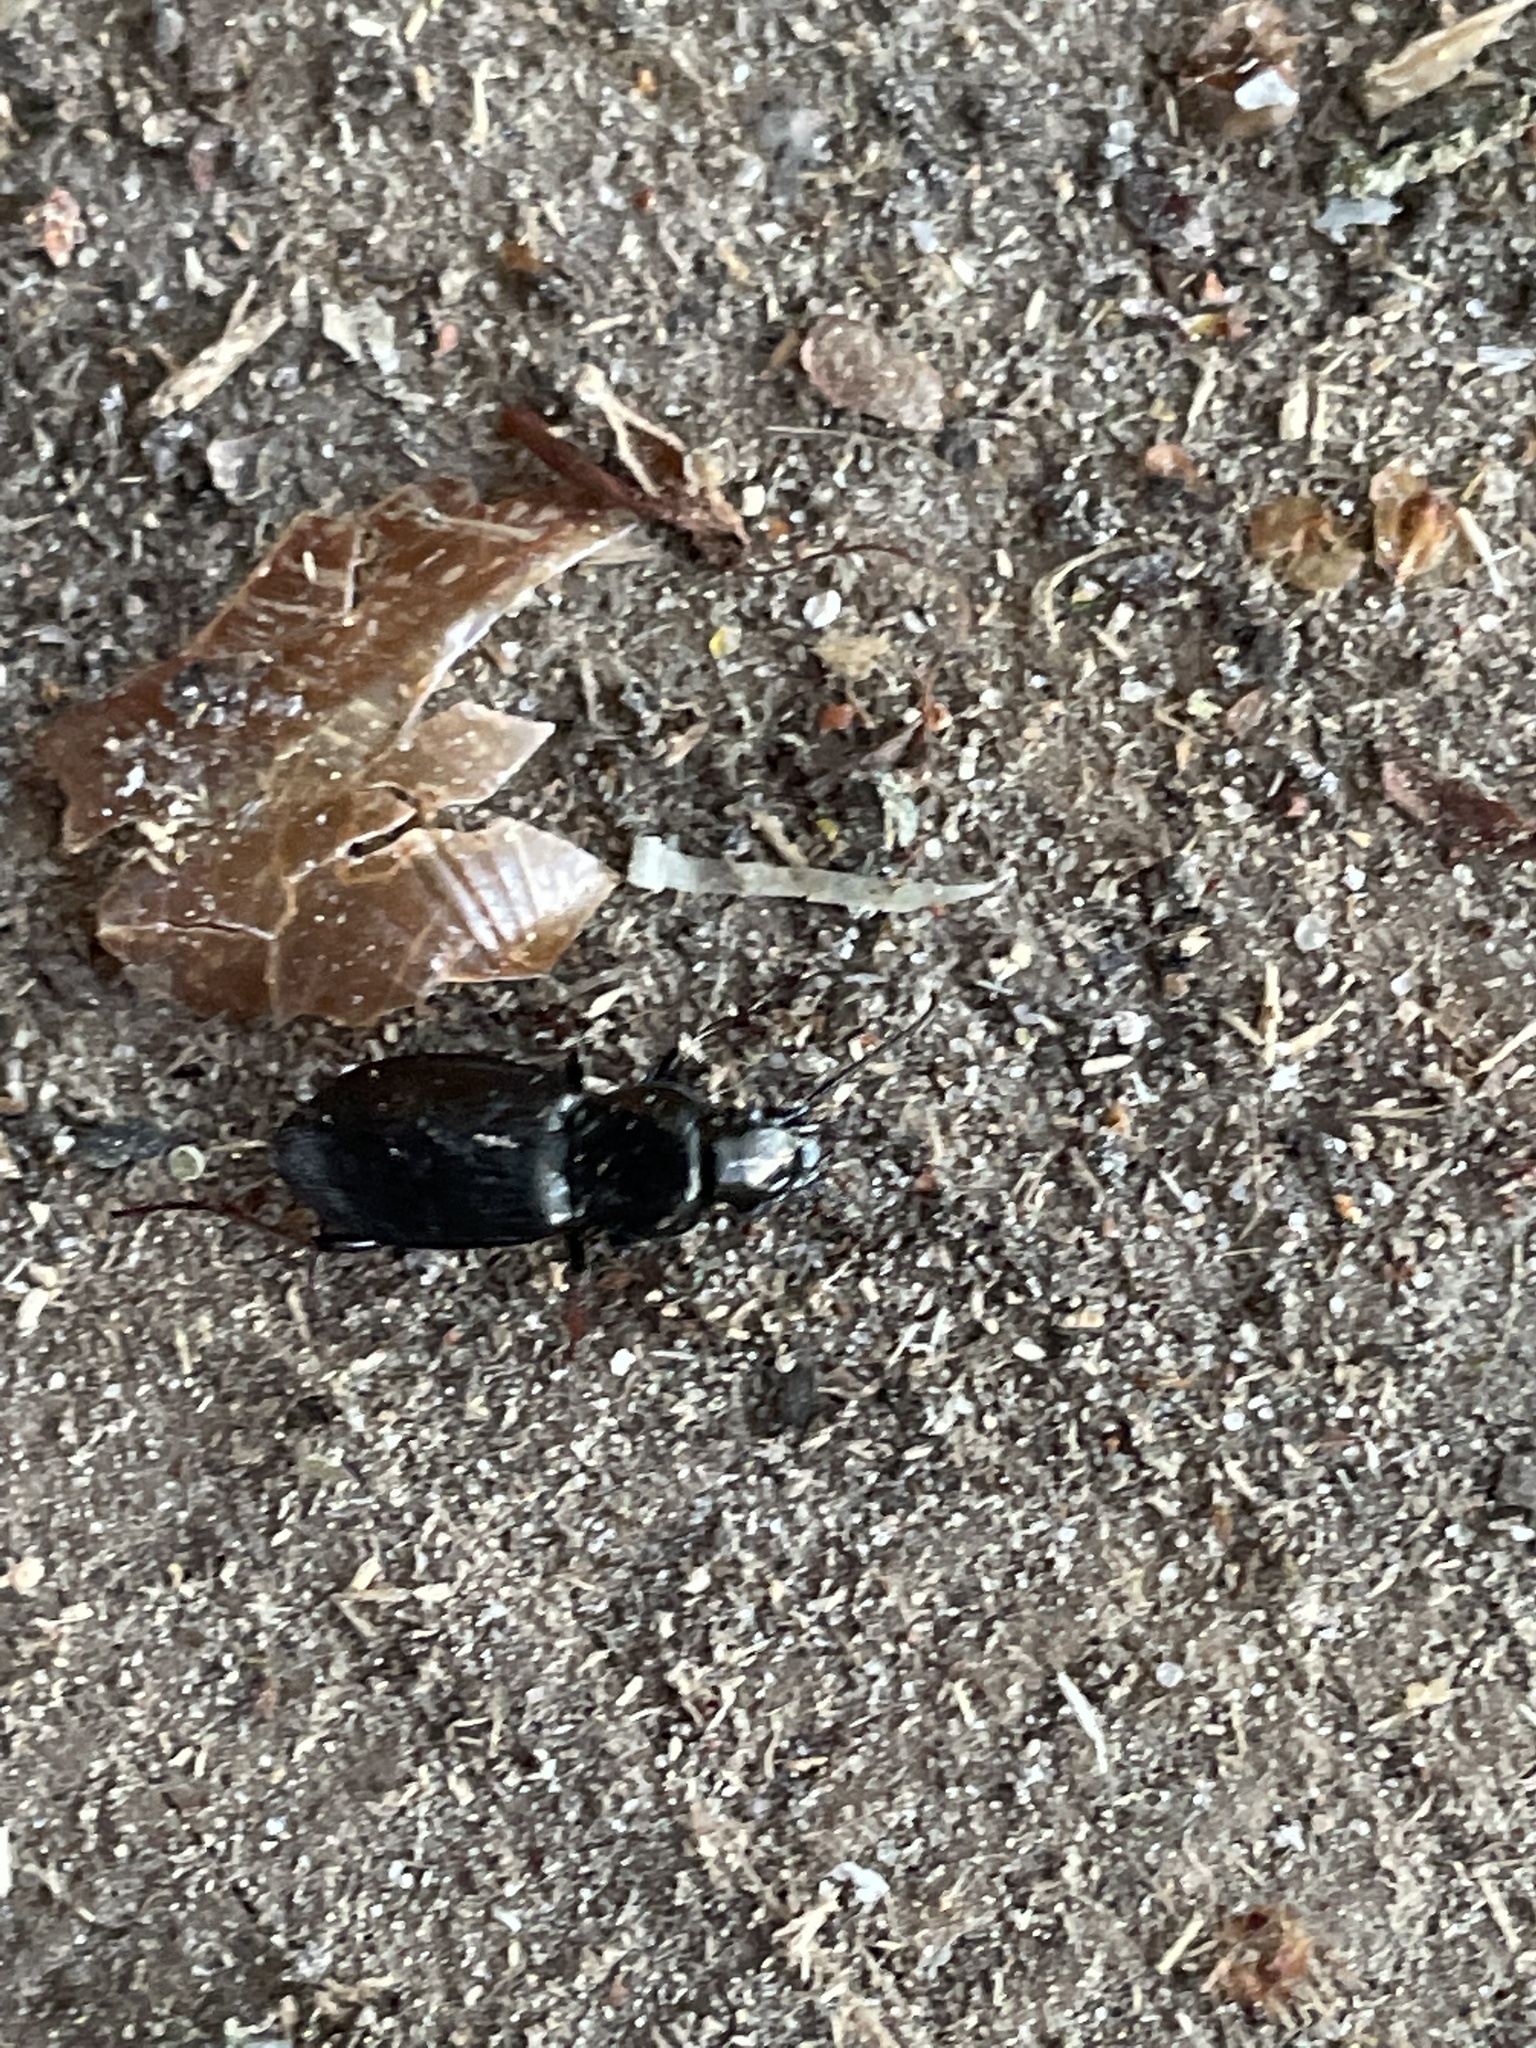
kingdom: Animalia
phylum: Arthropoda
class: Insecta
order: Coleoptera
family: Carabidae
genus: Pterostichus
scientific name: Pterostichus oblongopunctatus
